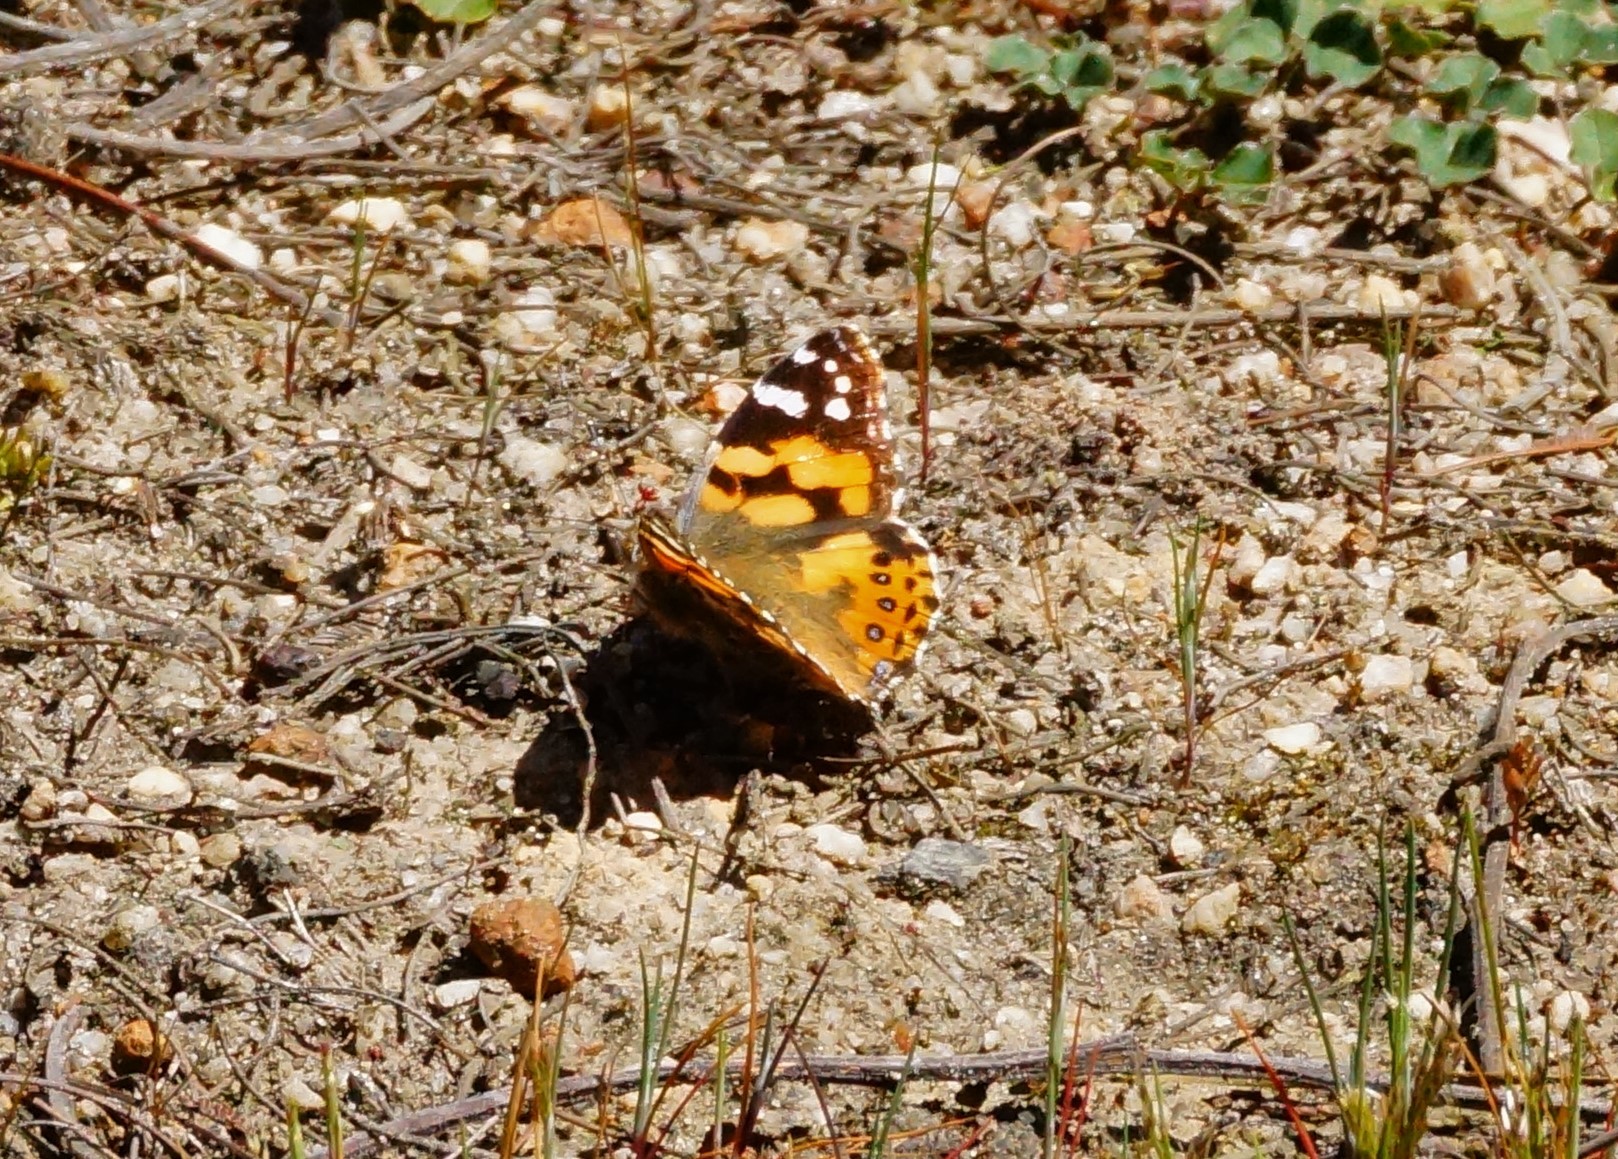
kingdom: Animalia
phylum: Arthropoda
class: Insecta
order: Lepidoptera
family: Nymphalidae
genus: Vanessa
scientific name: Vanessa kershawi
